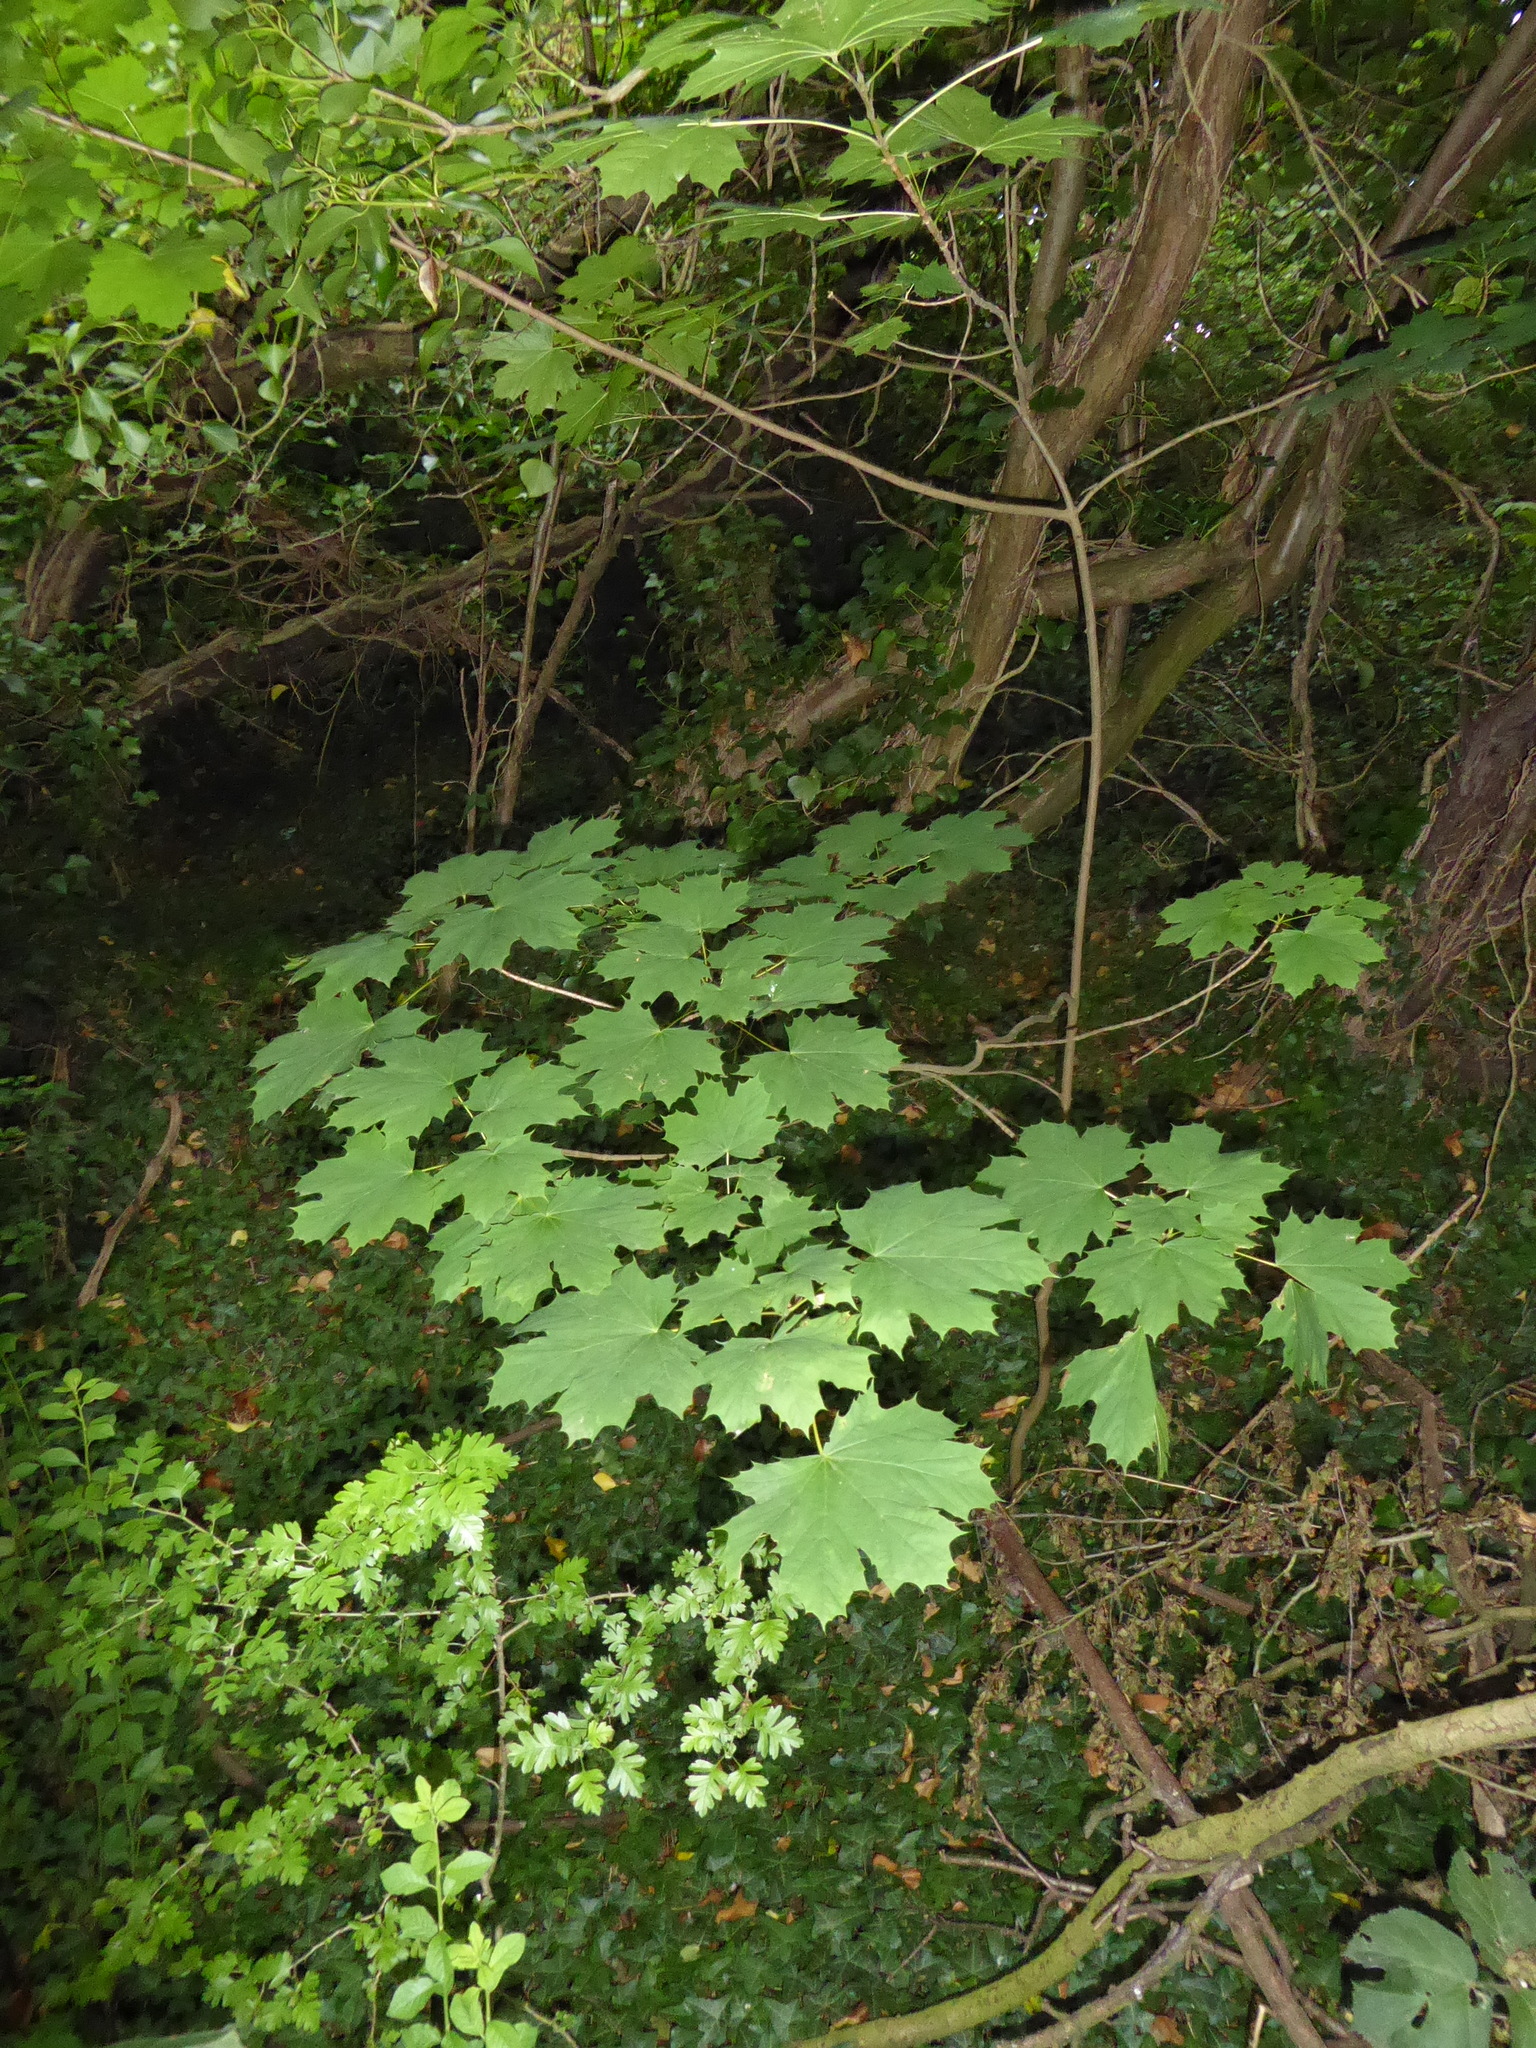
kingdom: Plantae
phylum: Tracheophyta
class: Magnoliopsida
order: Sapindales
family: Sapindaceae
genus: Acer
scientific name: Acer platanoides
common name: Norway maple
